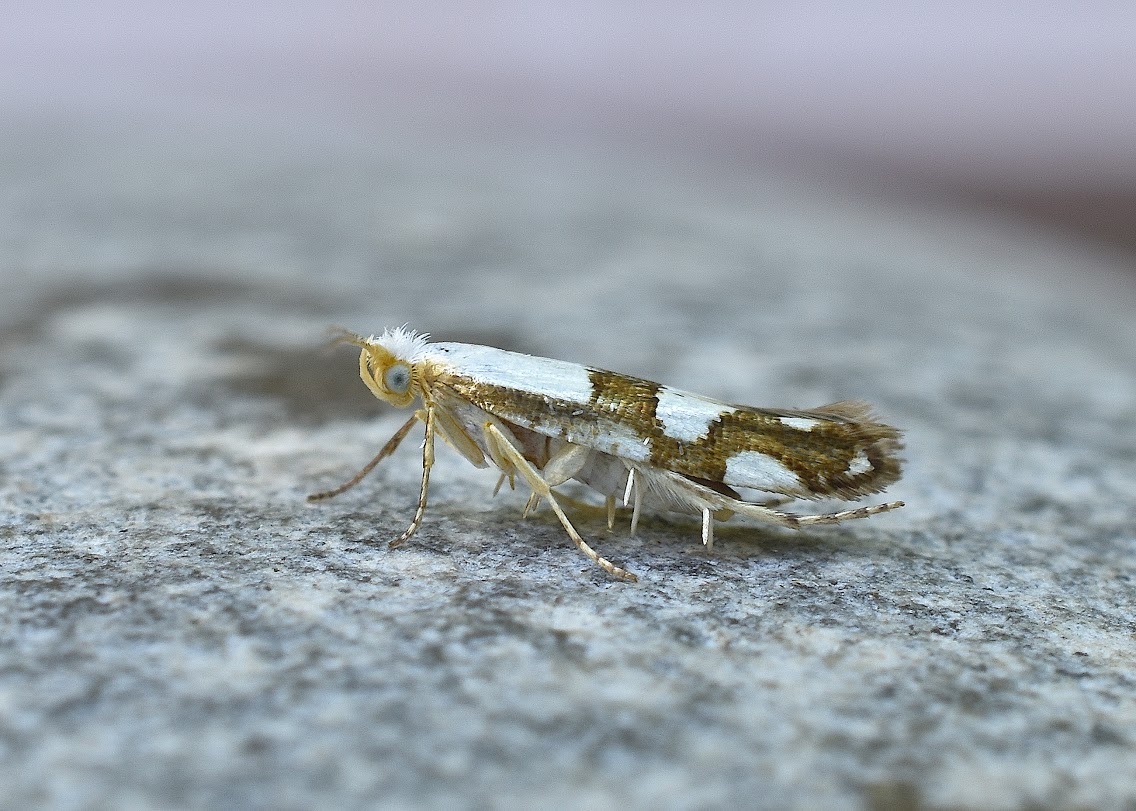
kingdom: Animalia
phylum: Arthropoda
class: Insecta
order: Lepidoptera
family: Argyresthiidae
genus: Argyresthia
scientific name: Argyresthia oreasella
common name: Cherry shoot borer moth
